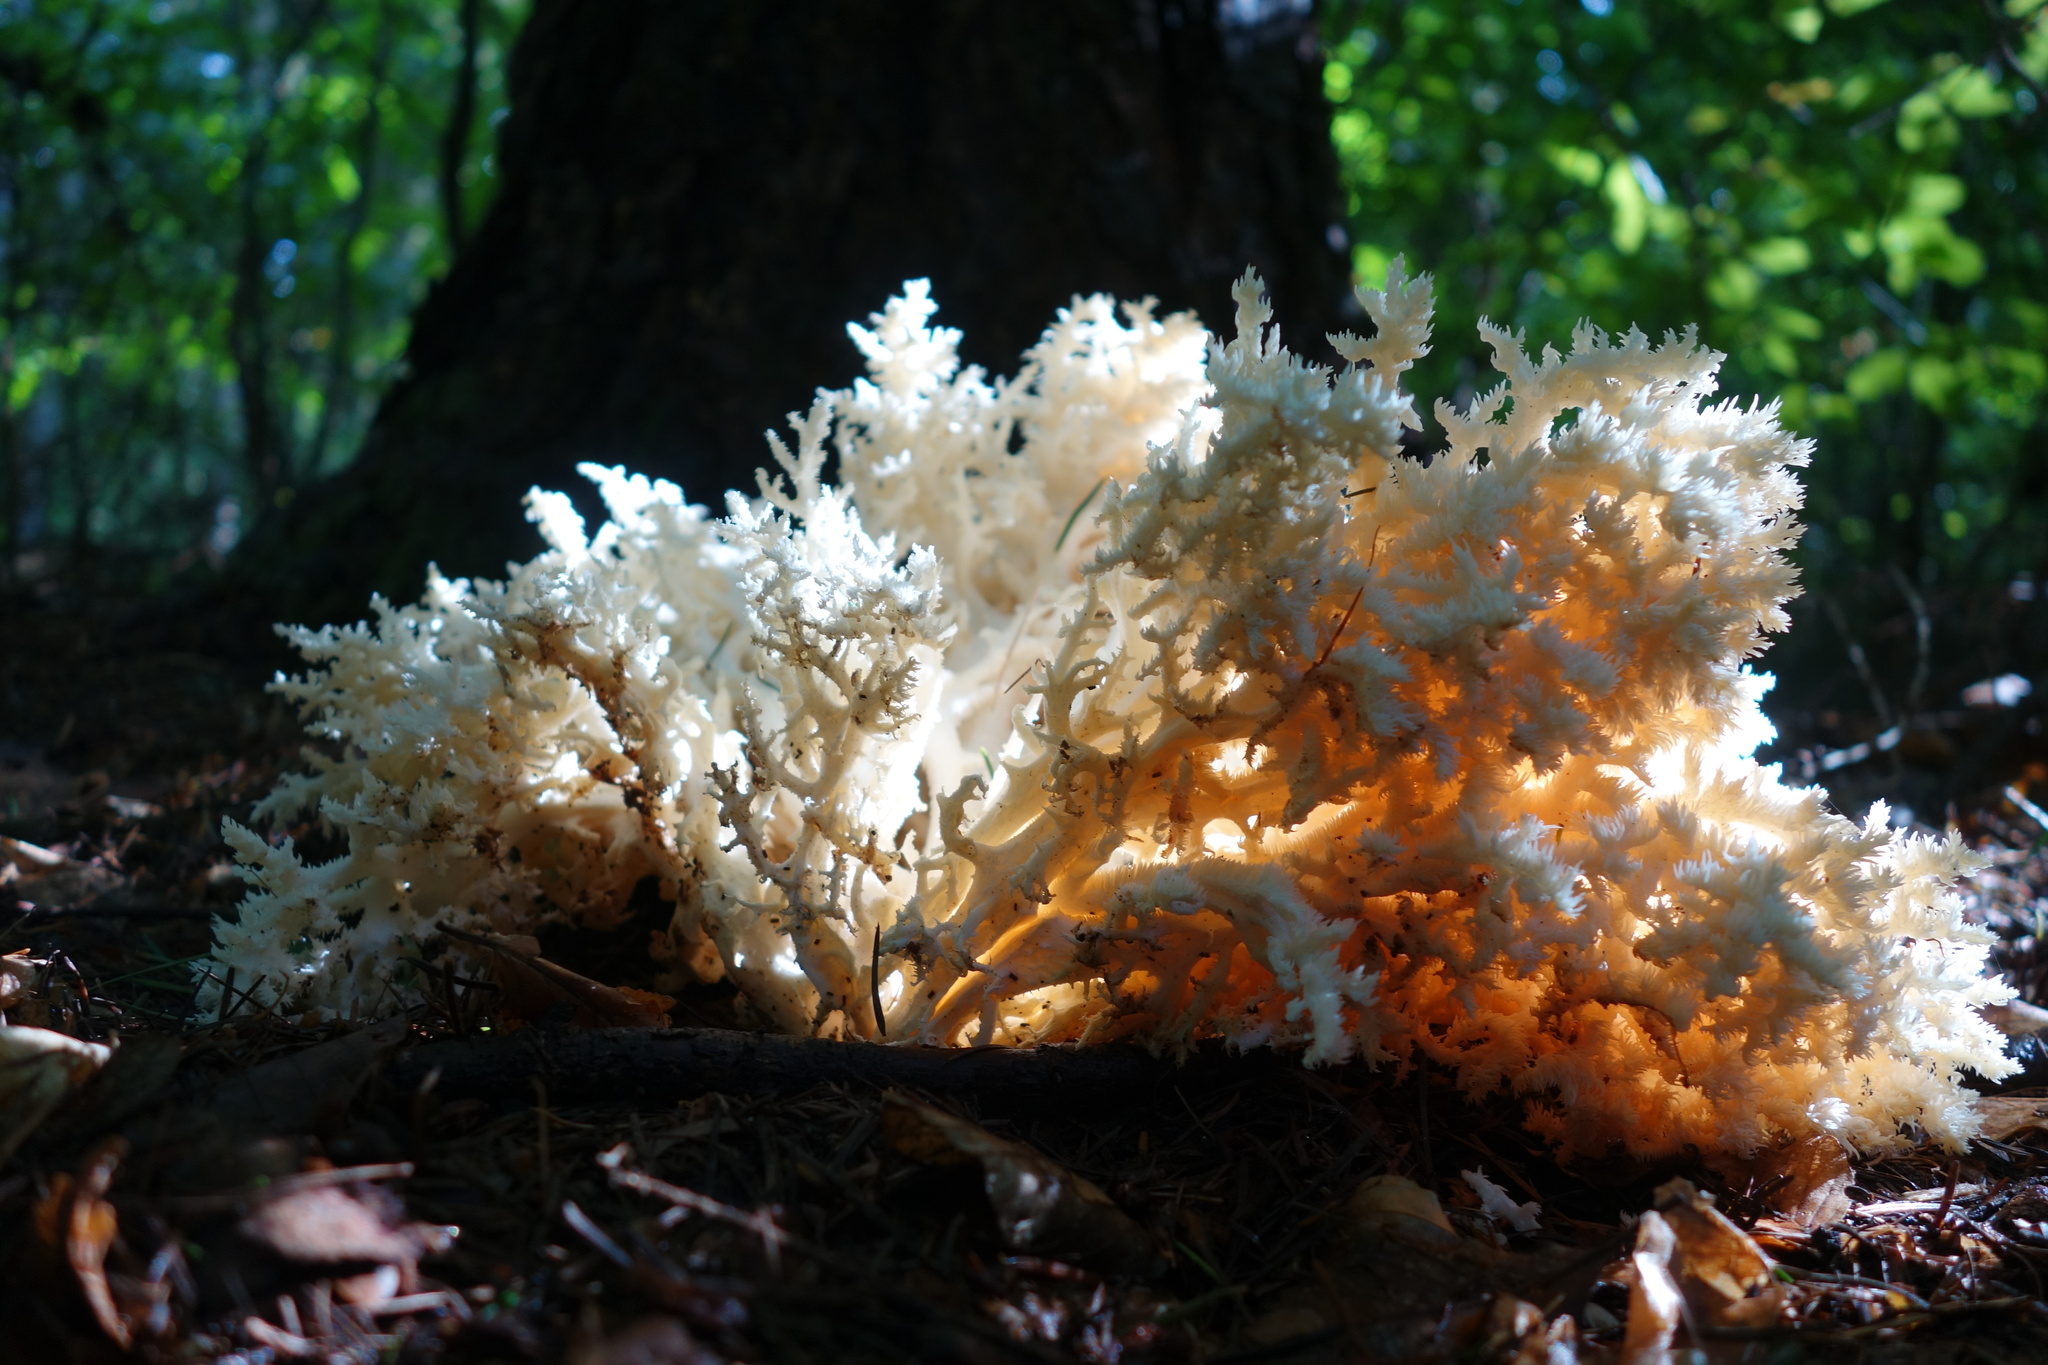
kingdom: Fungi
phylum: Basidiomycota
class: Agaricomycetes
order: Russulales
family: Hericiaceae
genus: Hericium
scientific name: Hericium coralloides
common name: Coral tooth
